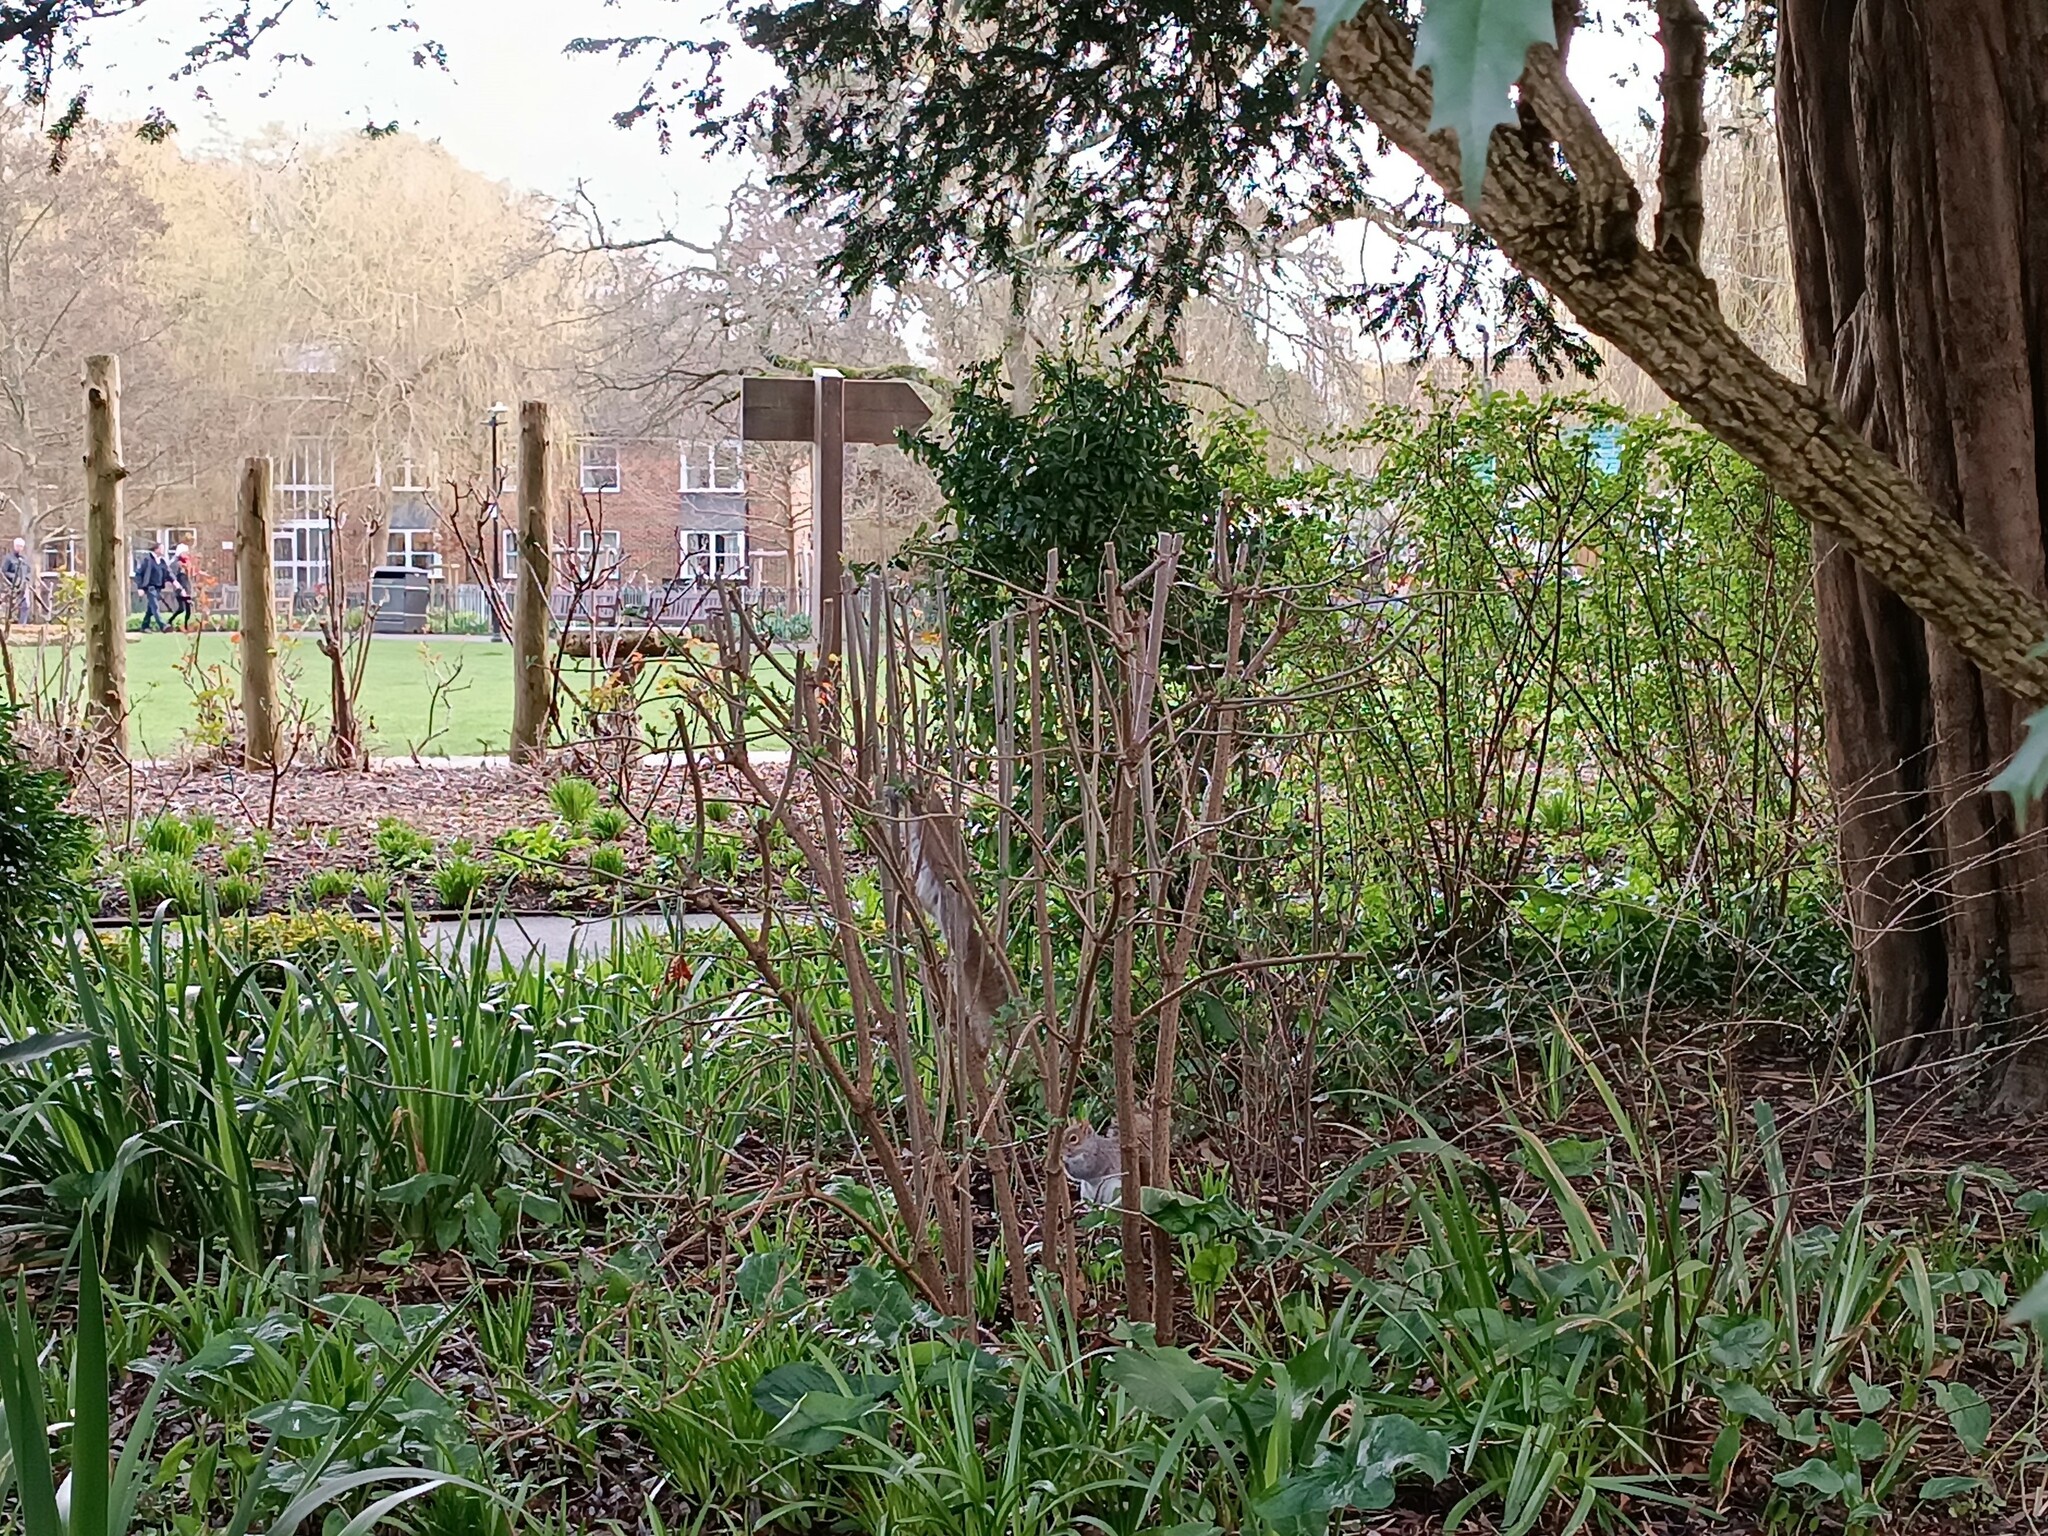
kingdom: Animalia
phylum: Chordata
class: Mammalia
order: Rodentia
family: Sciuridae
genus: Sciurus
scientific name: Sciurus carolinensis
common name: Eastern gray squirrel
